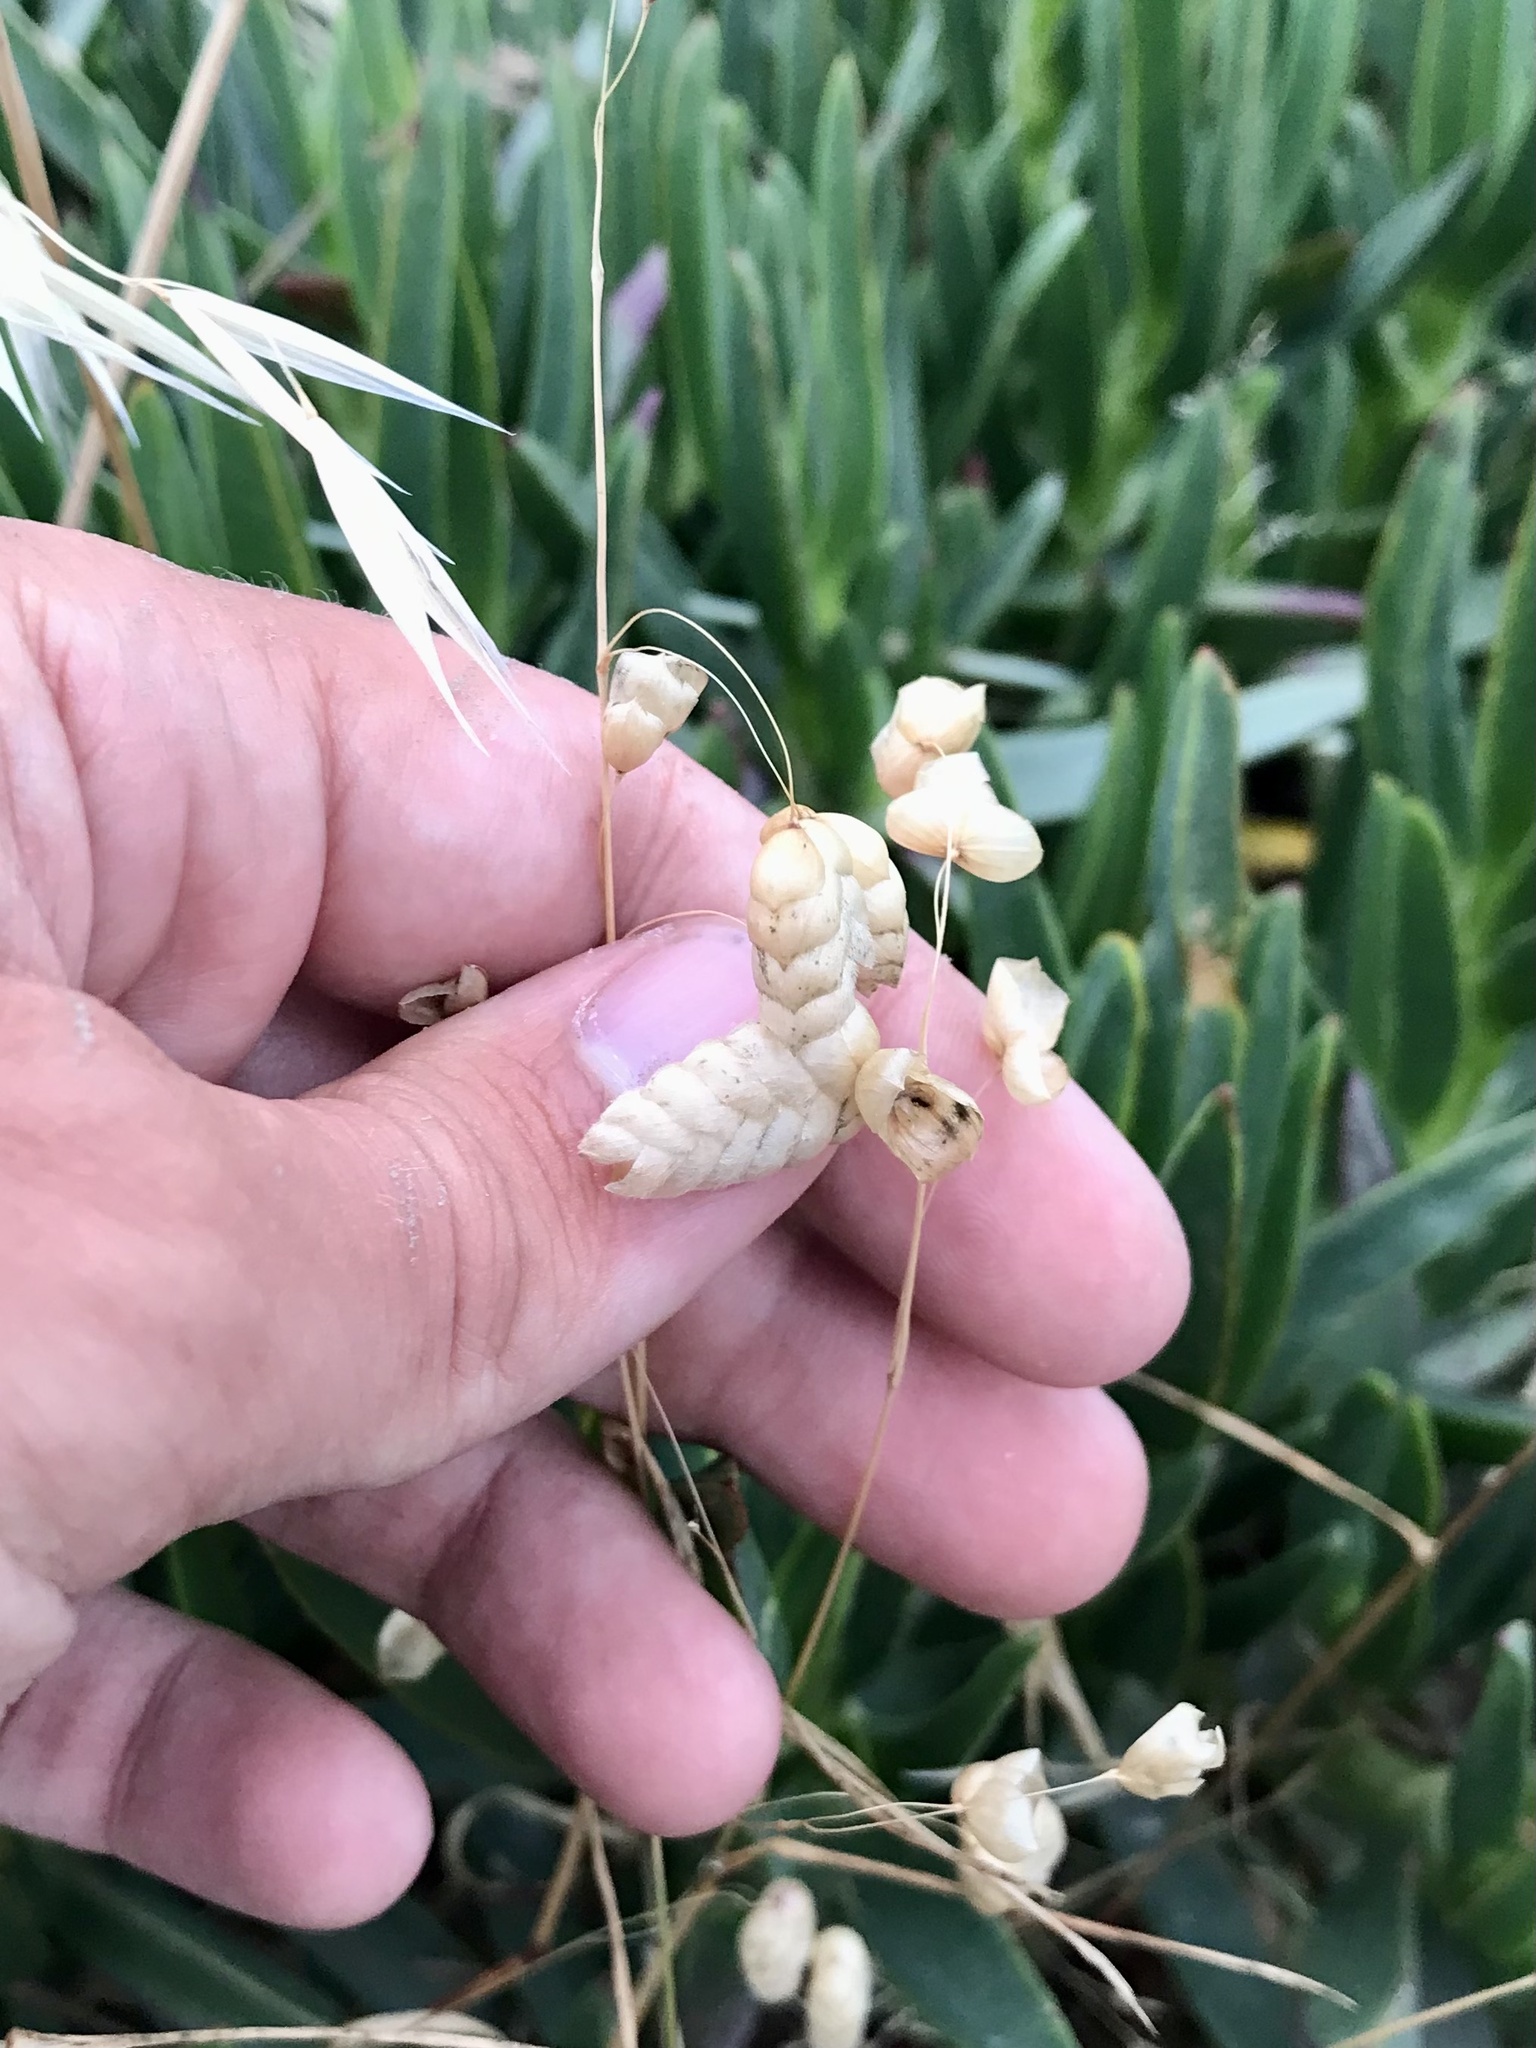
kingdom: Plantae
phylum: Tracheophyta
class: Liliopsida
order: Poales
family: Poaceae
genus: Briza
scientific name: Briza maxima
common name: Big quakinggrass
